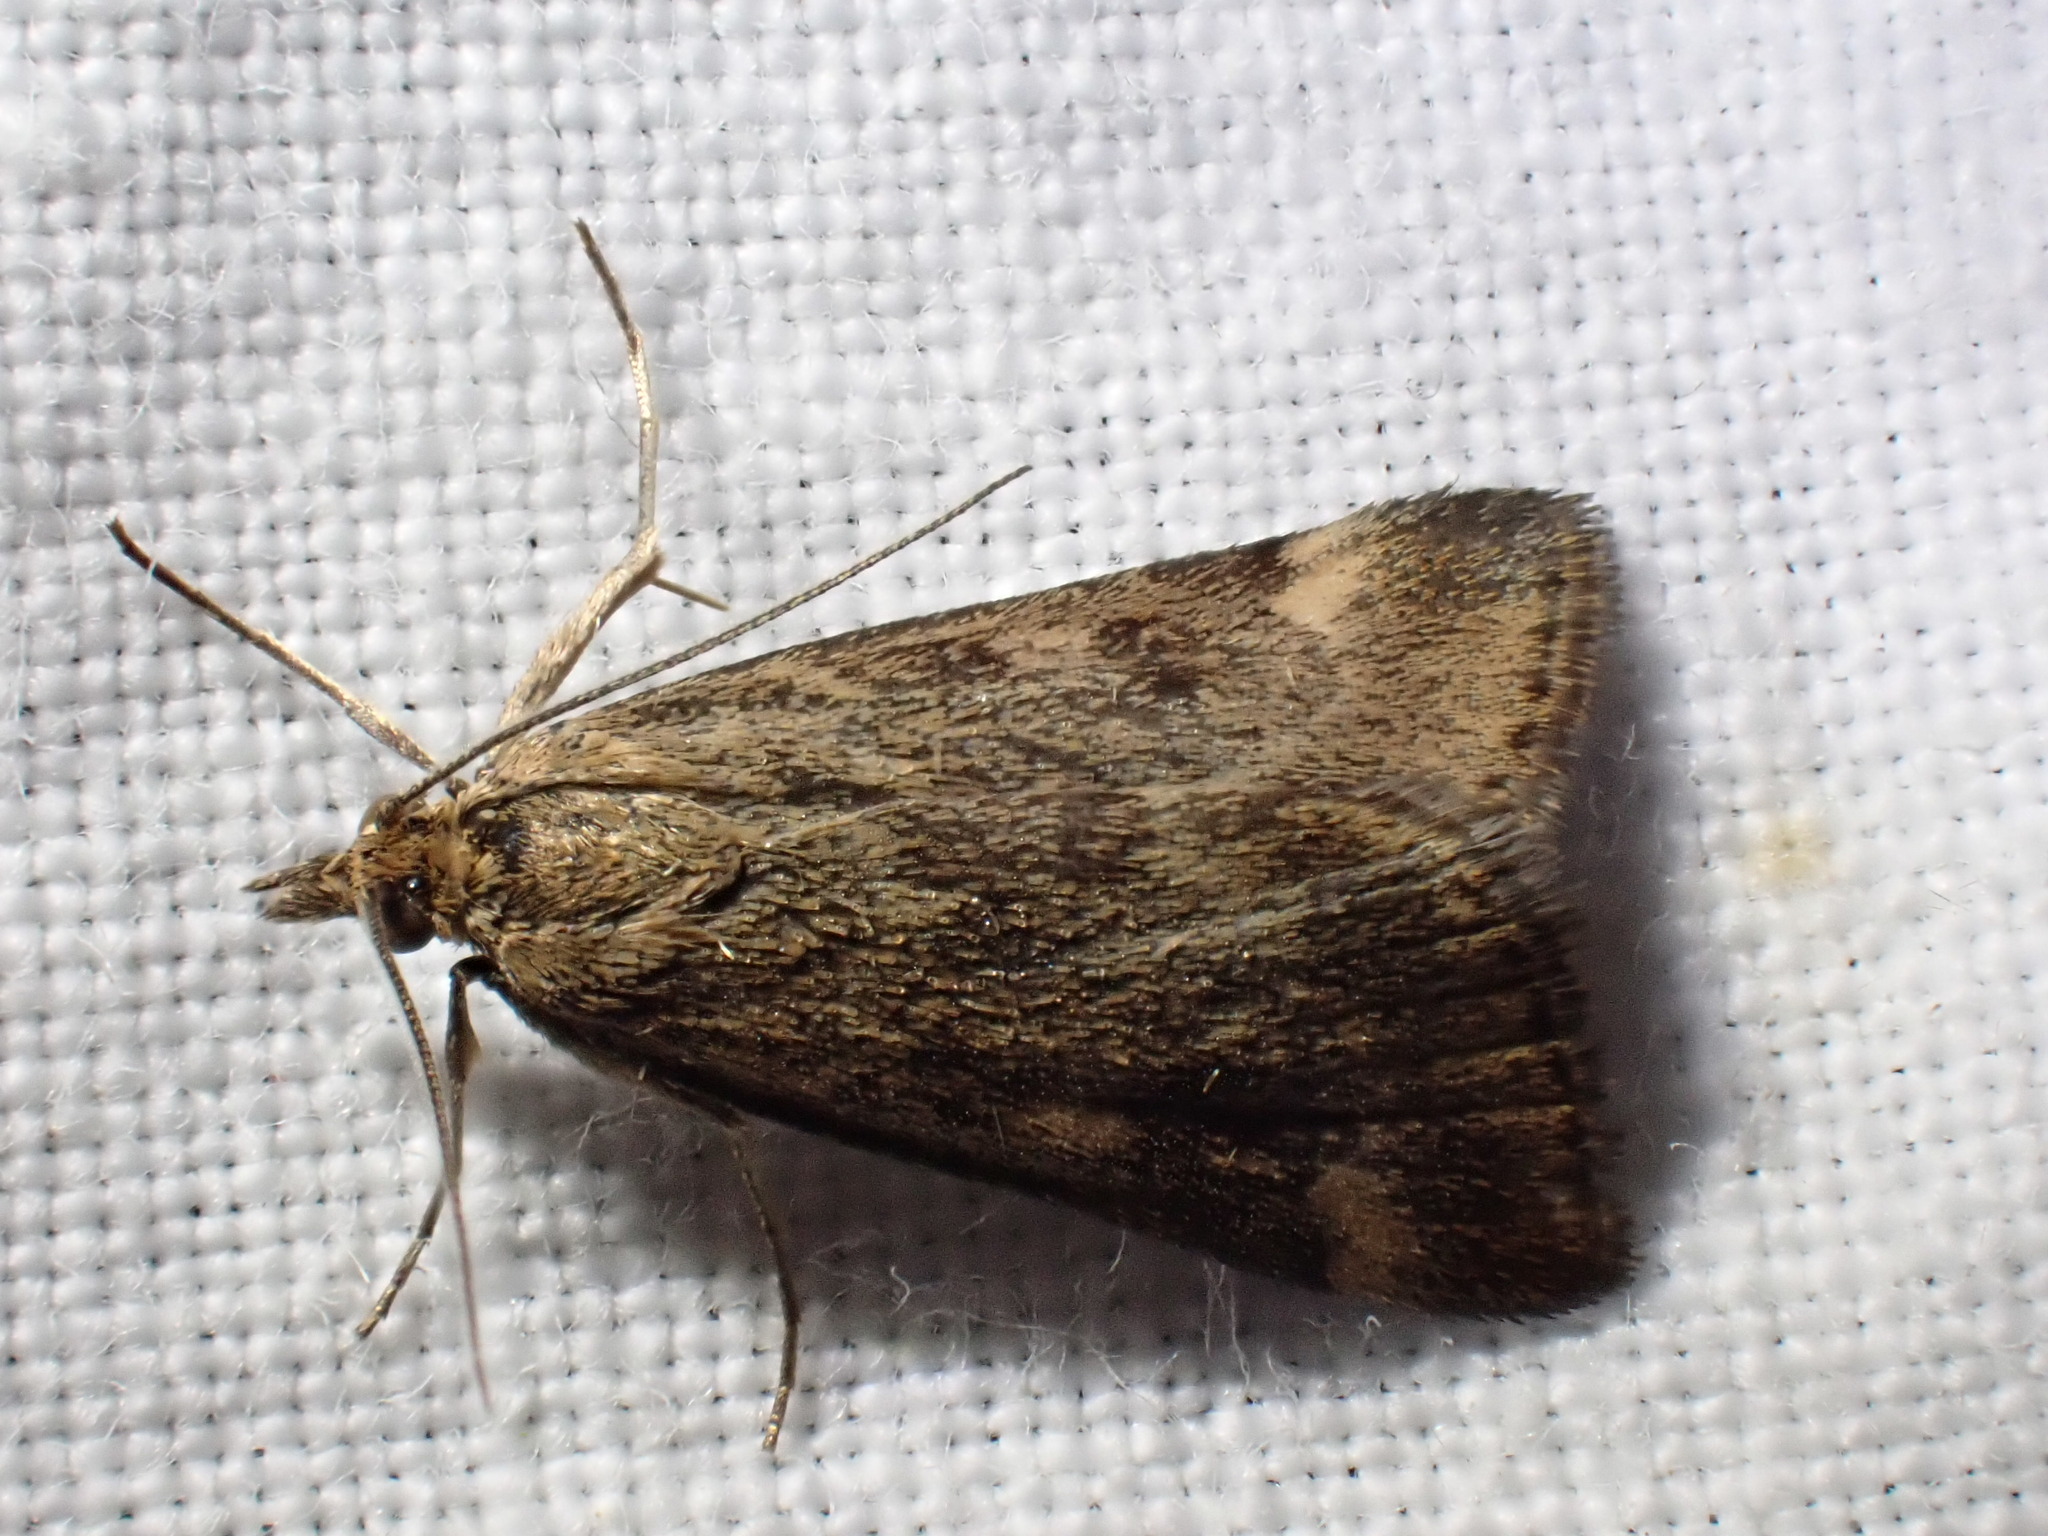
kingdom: Animalia
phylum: Arthropoda
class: Insecta
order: Lepidoptera
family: Crambidae
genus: Pyrausta
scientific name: Pyrausta despicata
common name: Straw-barred pearl
